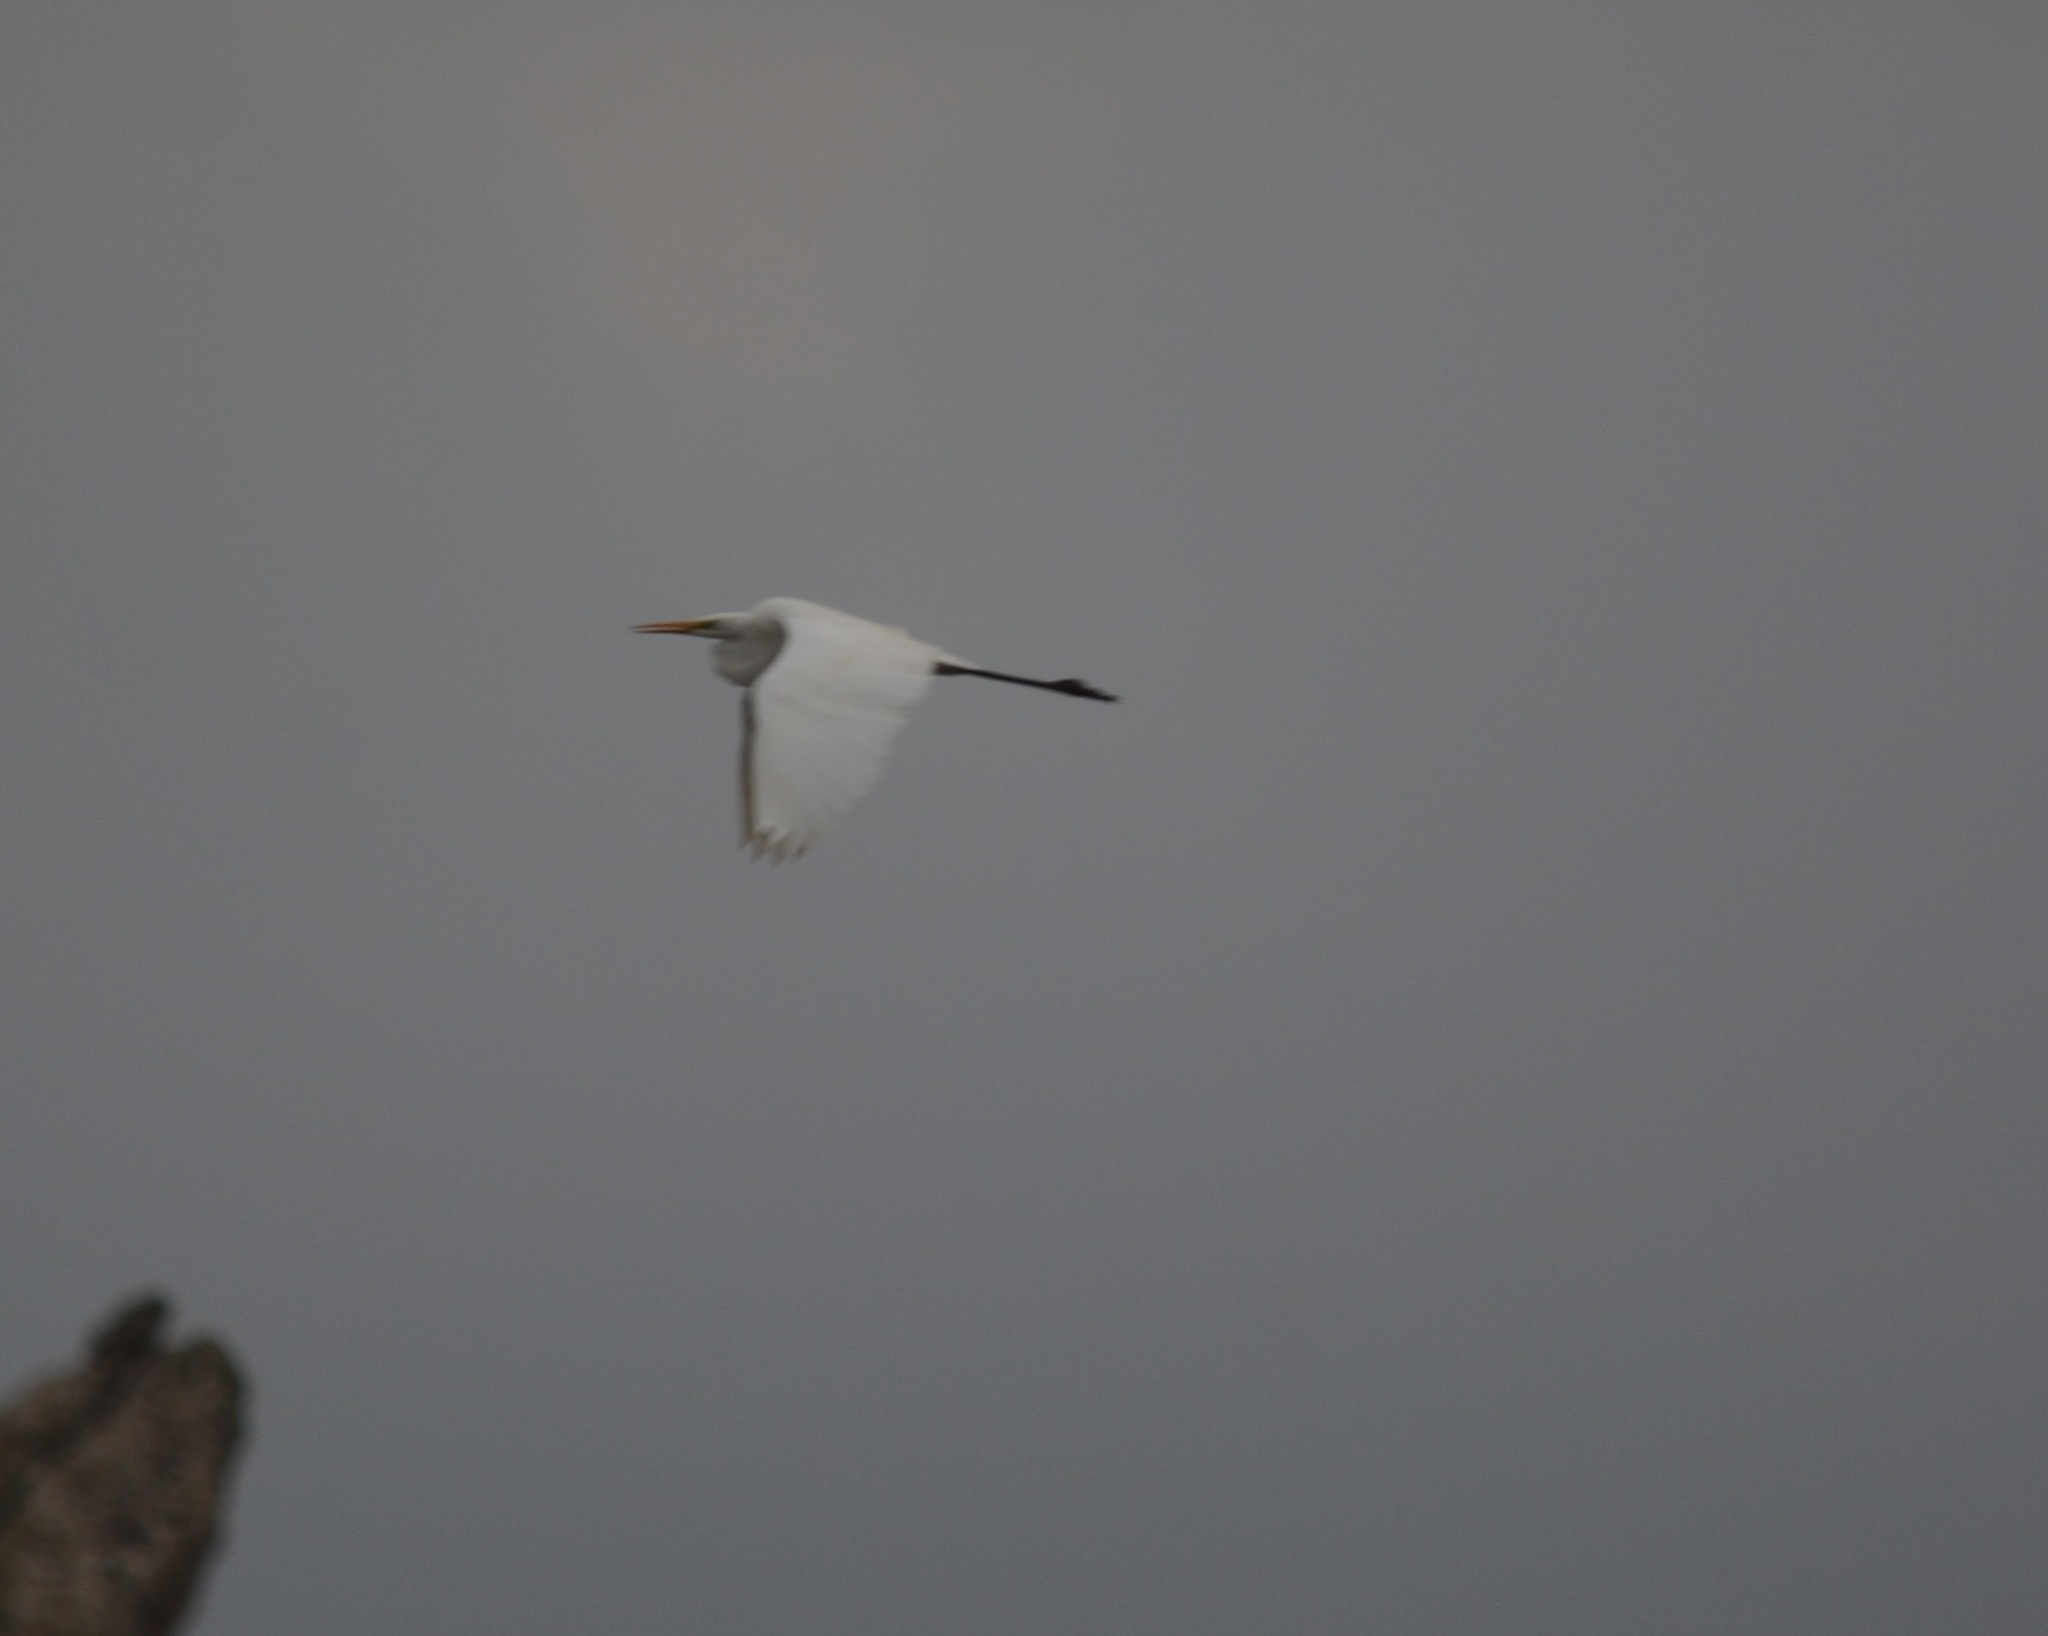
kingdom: Animalia
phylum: Chordata
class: Aves
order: Pelecaniformes
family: Ardeidae
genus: Ardea
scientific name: Ardea alba
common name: Great egret
